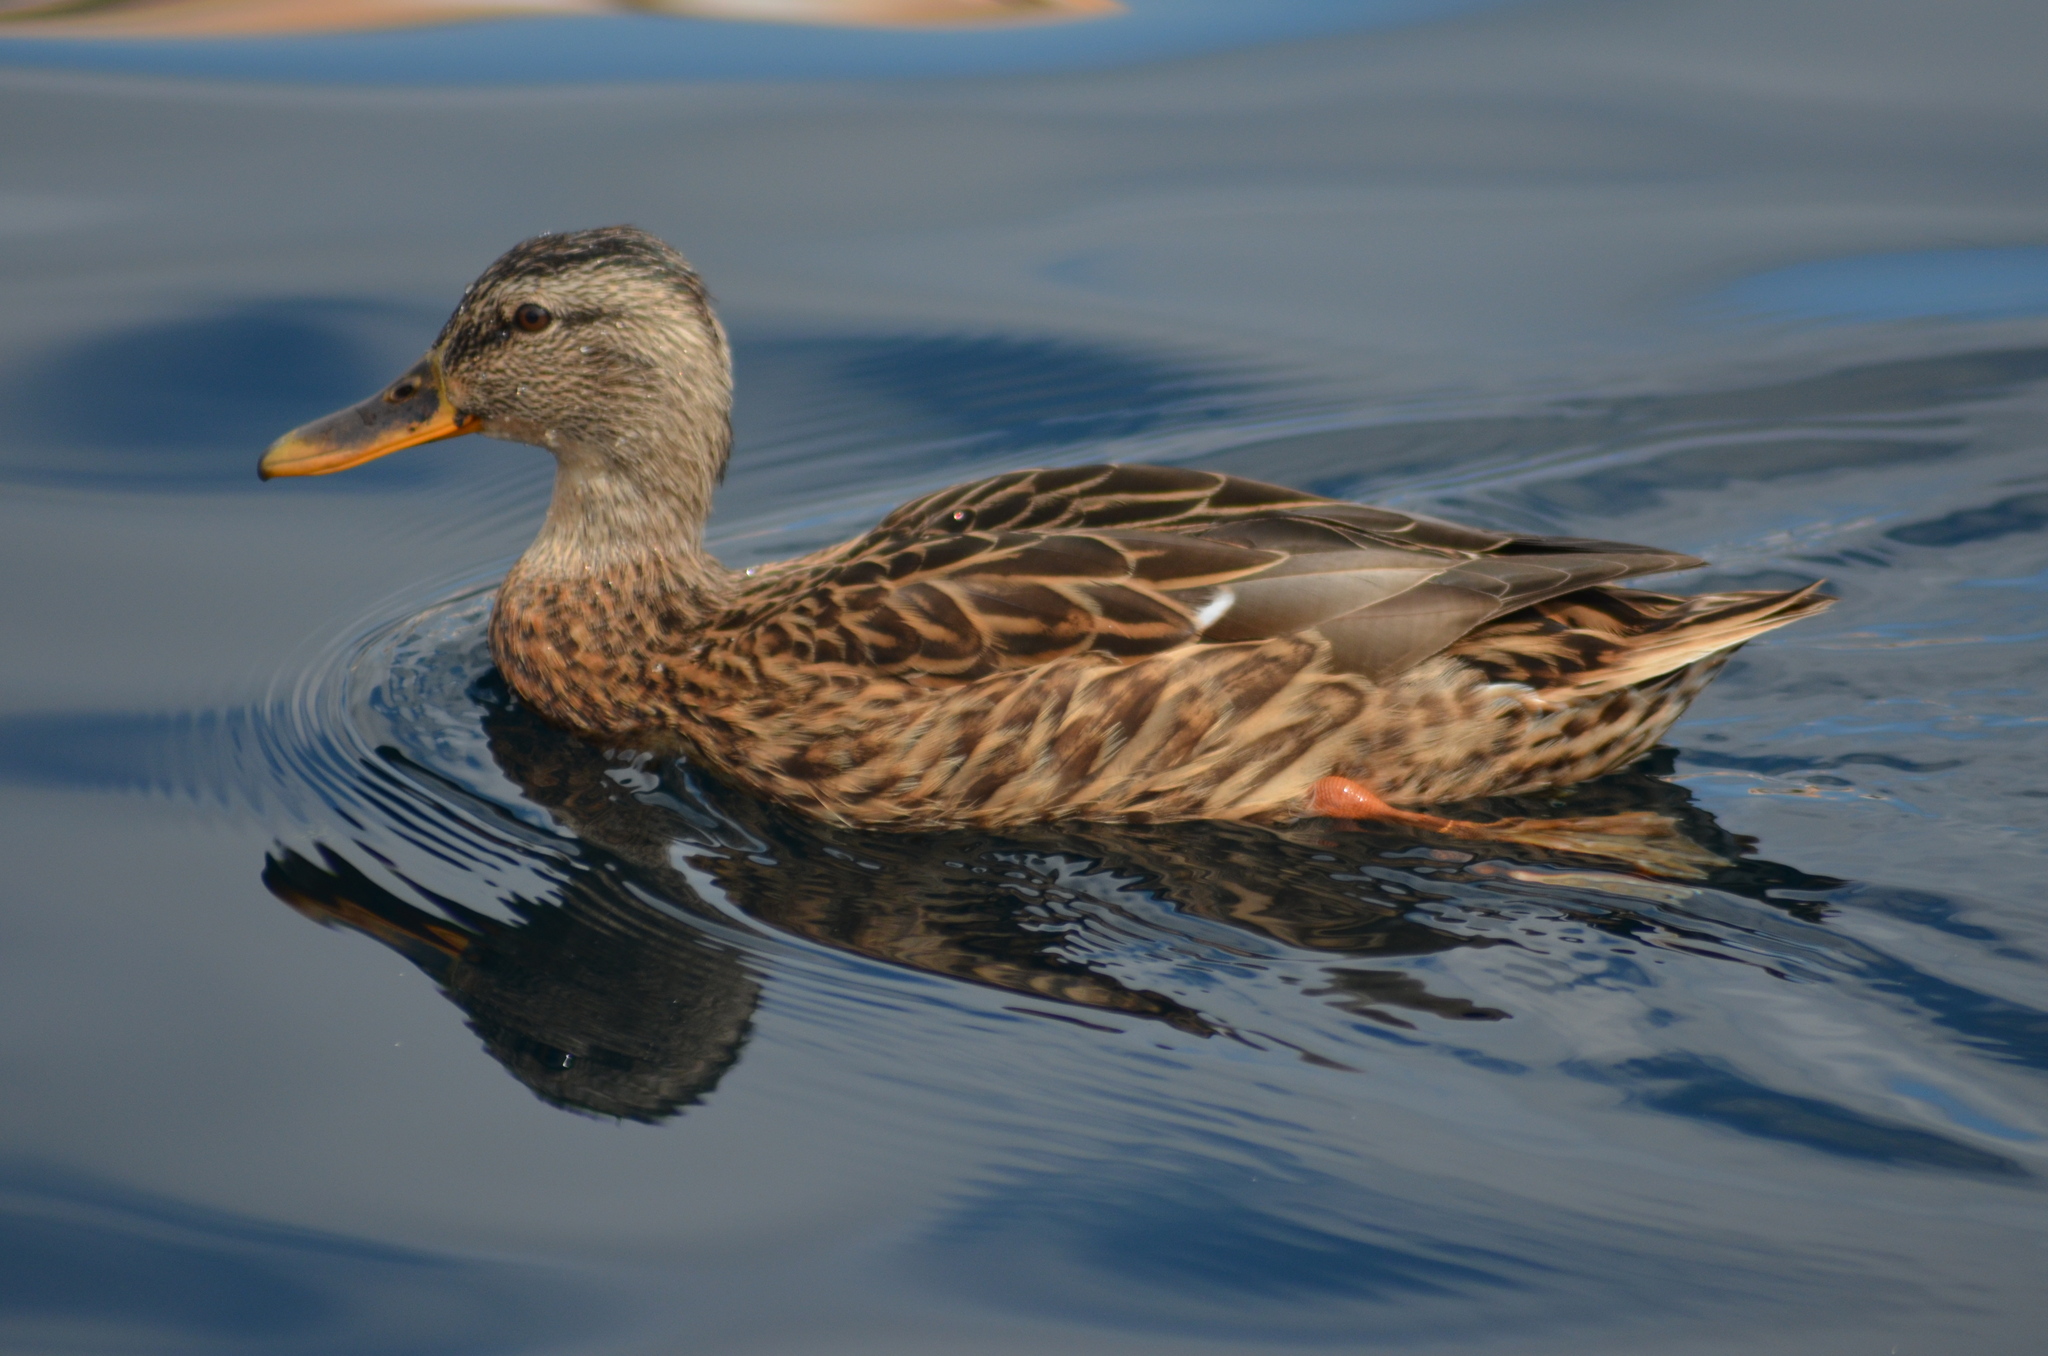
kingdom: Animalia
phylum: Chordata
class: Aves
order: Anseriformes
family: Anatidae
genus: Anas
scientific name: Anas platyrhynchos
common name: Mallard
